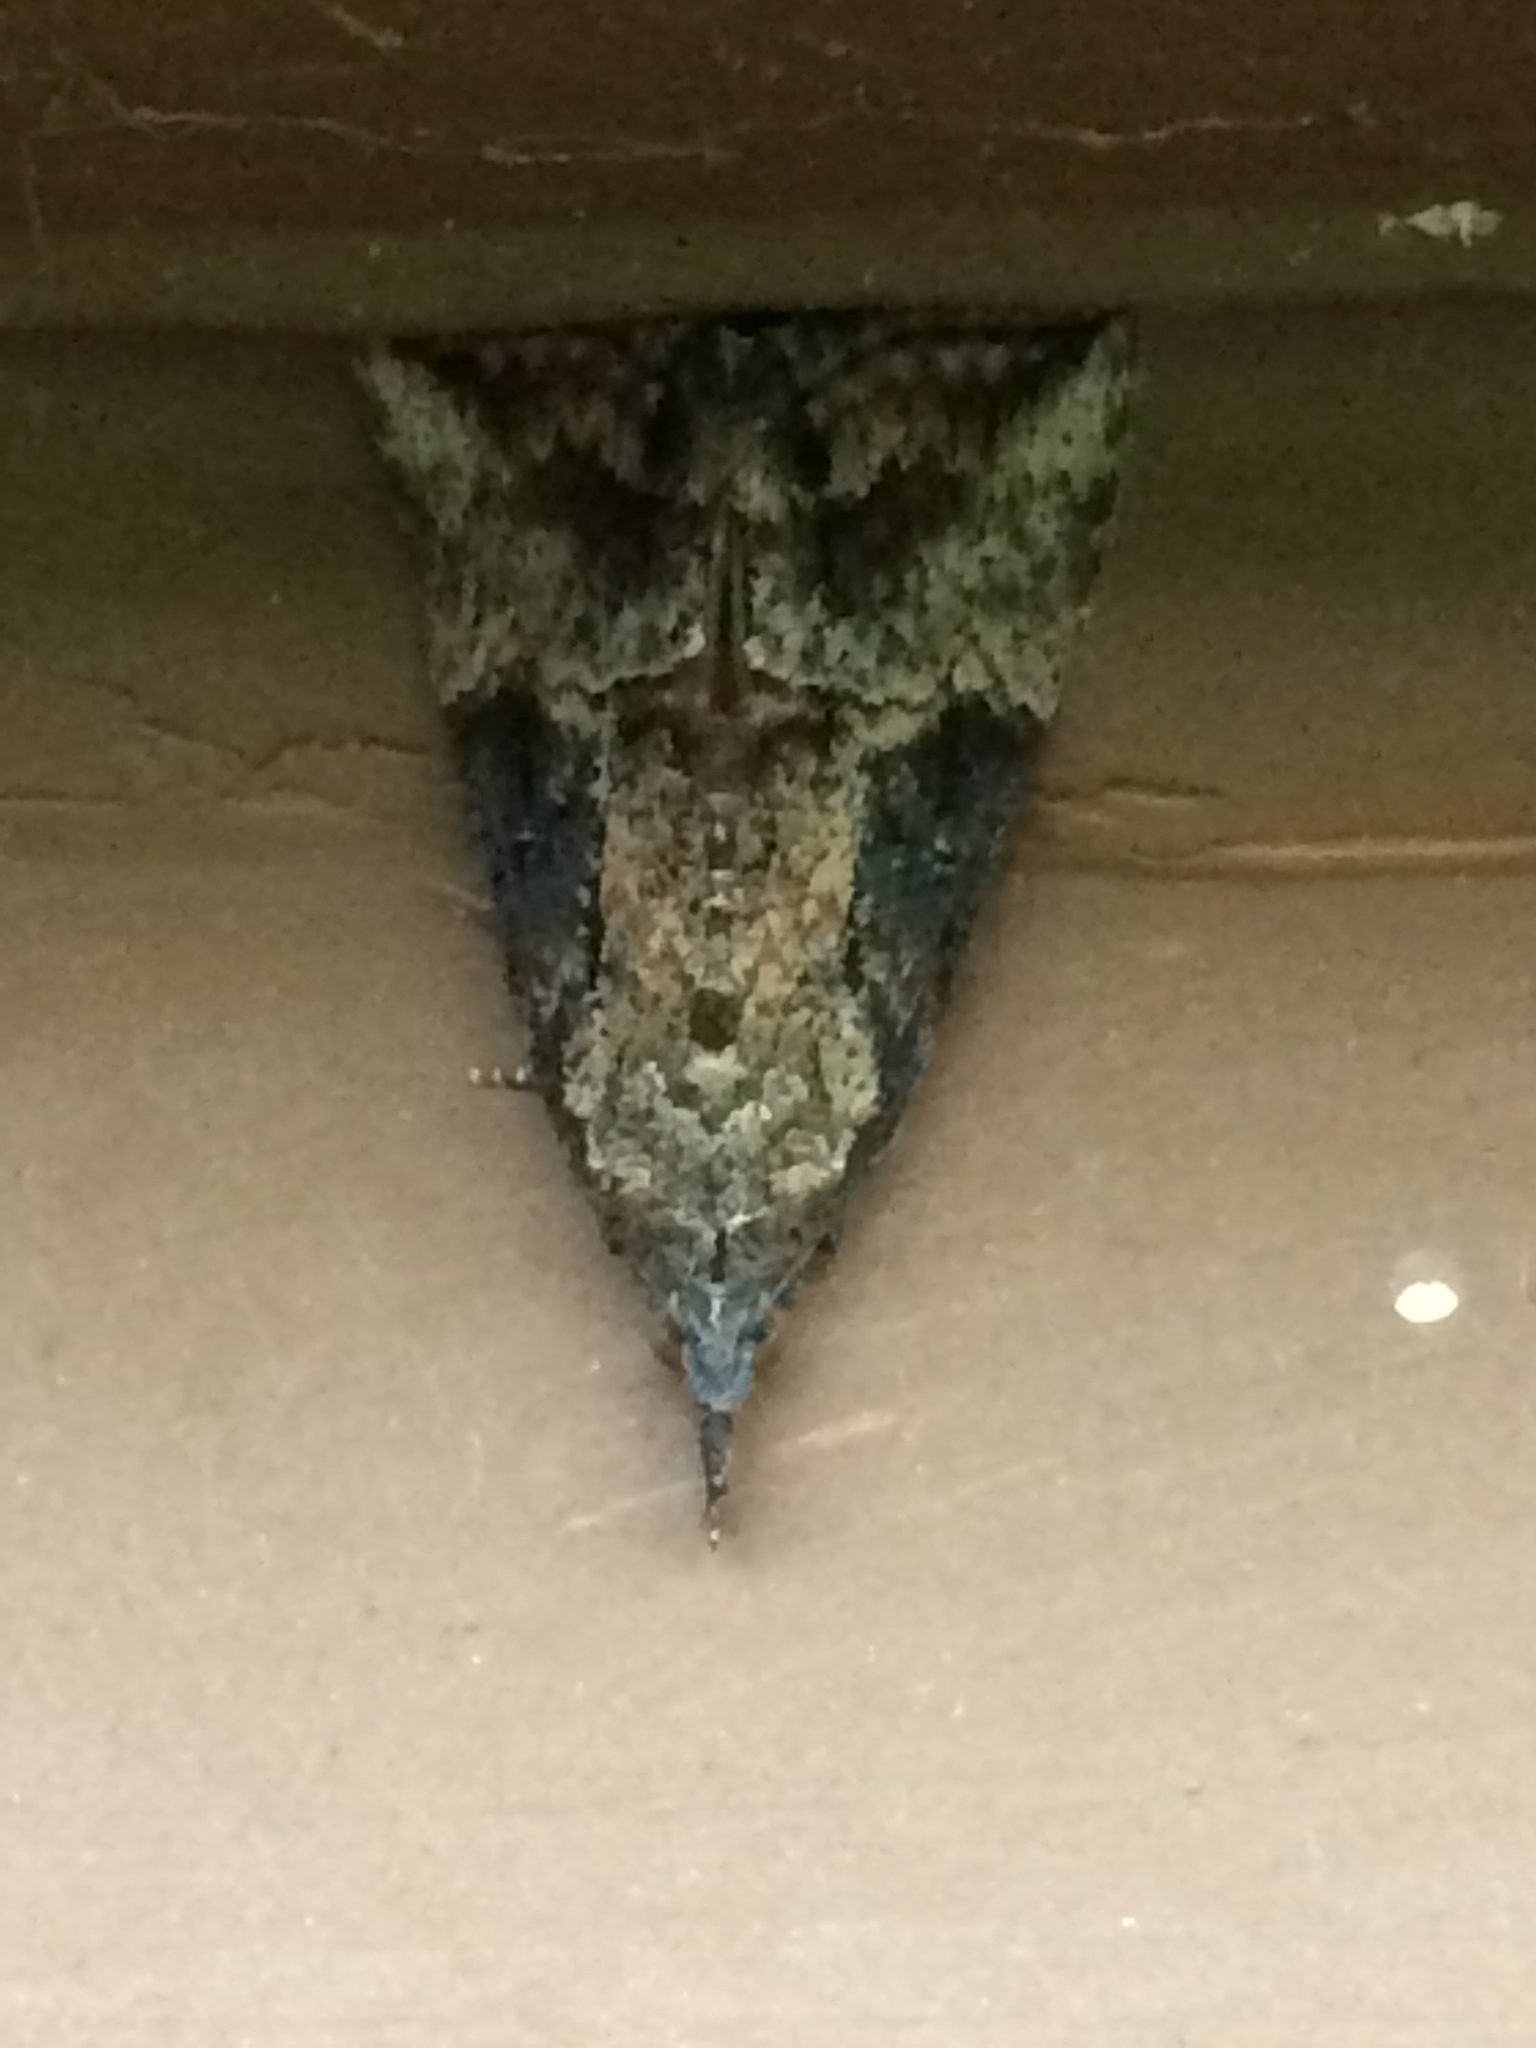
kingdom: Animalia
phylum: Arthropoda
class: Insecta
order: Lepidoptera
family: Erebidae
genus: Hypena
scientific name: Hypena scabra
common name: Green cloverworm
